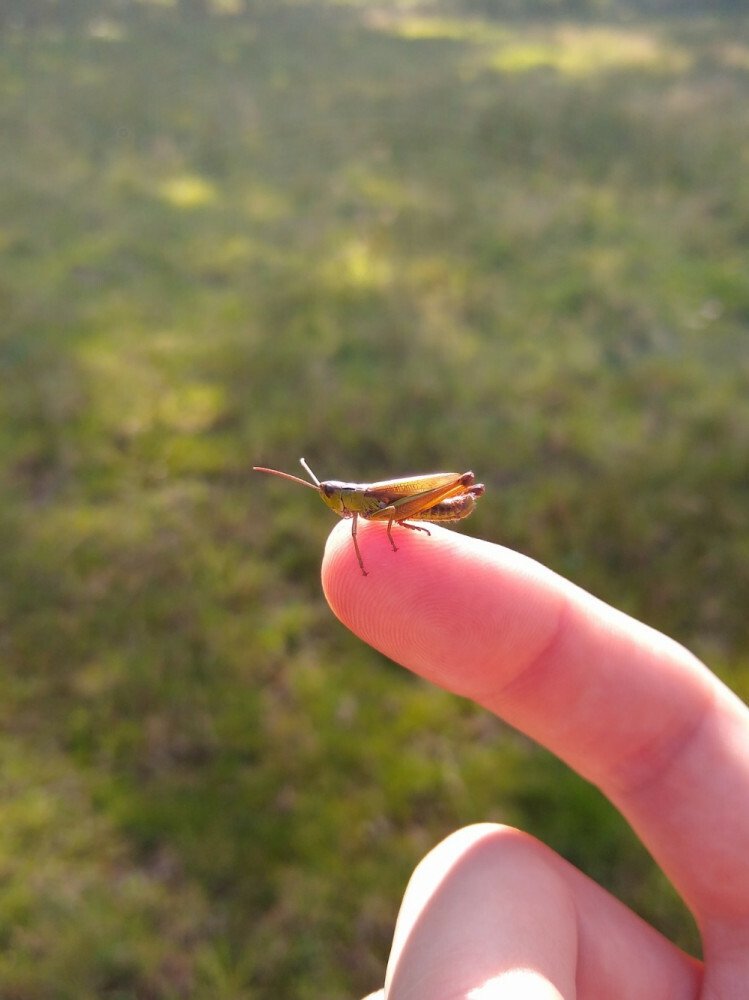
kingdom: Animalia
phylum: Arthropoda
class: Insecta
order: Orthoptera
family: Acrididae
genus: Pseudochorthippus
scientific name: Pseudochorthippus montanus
